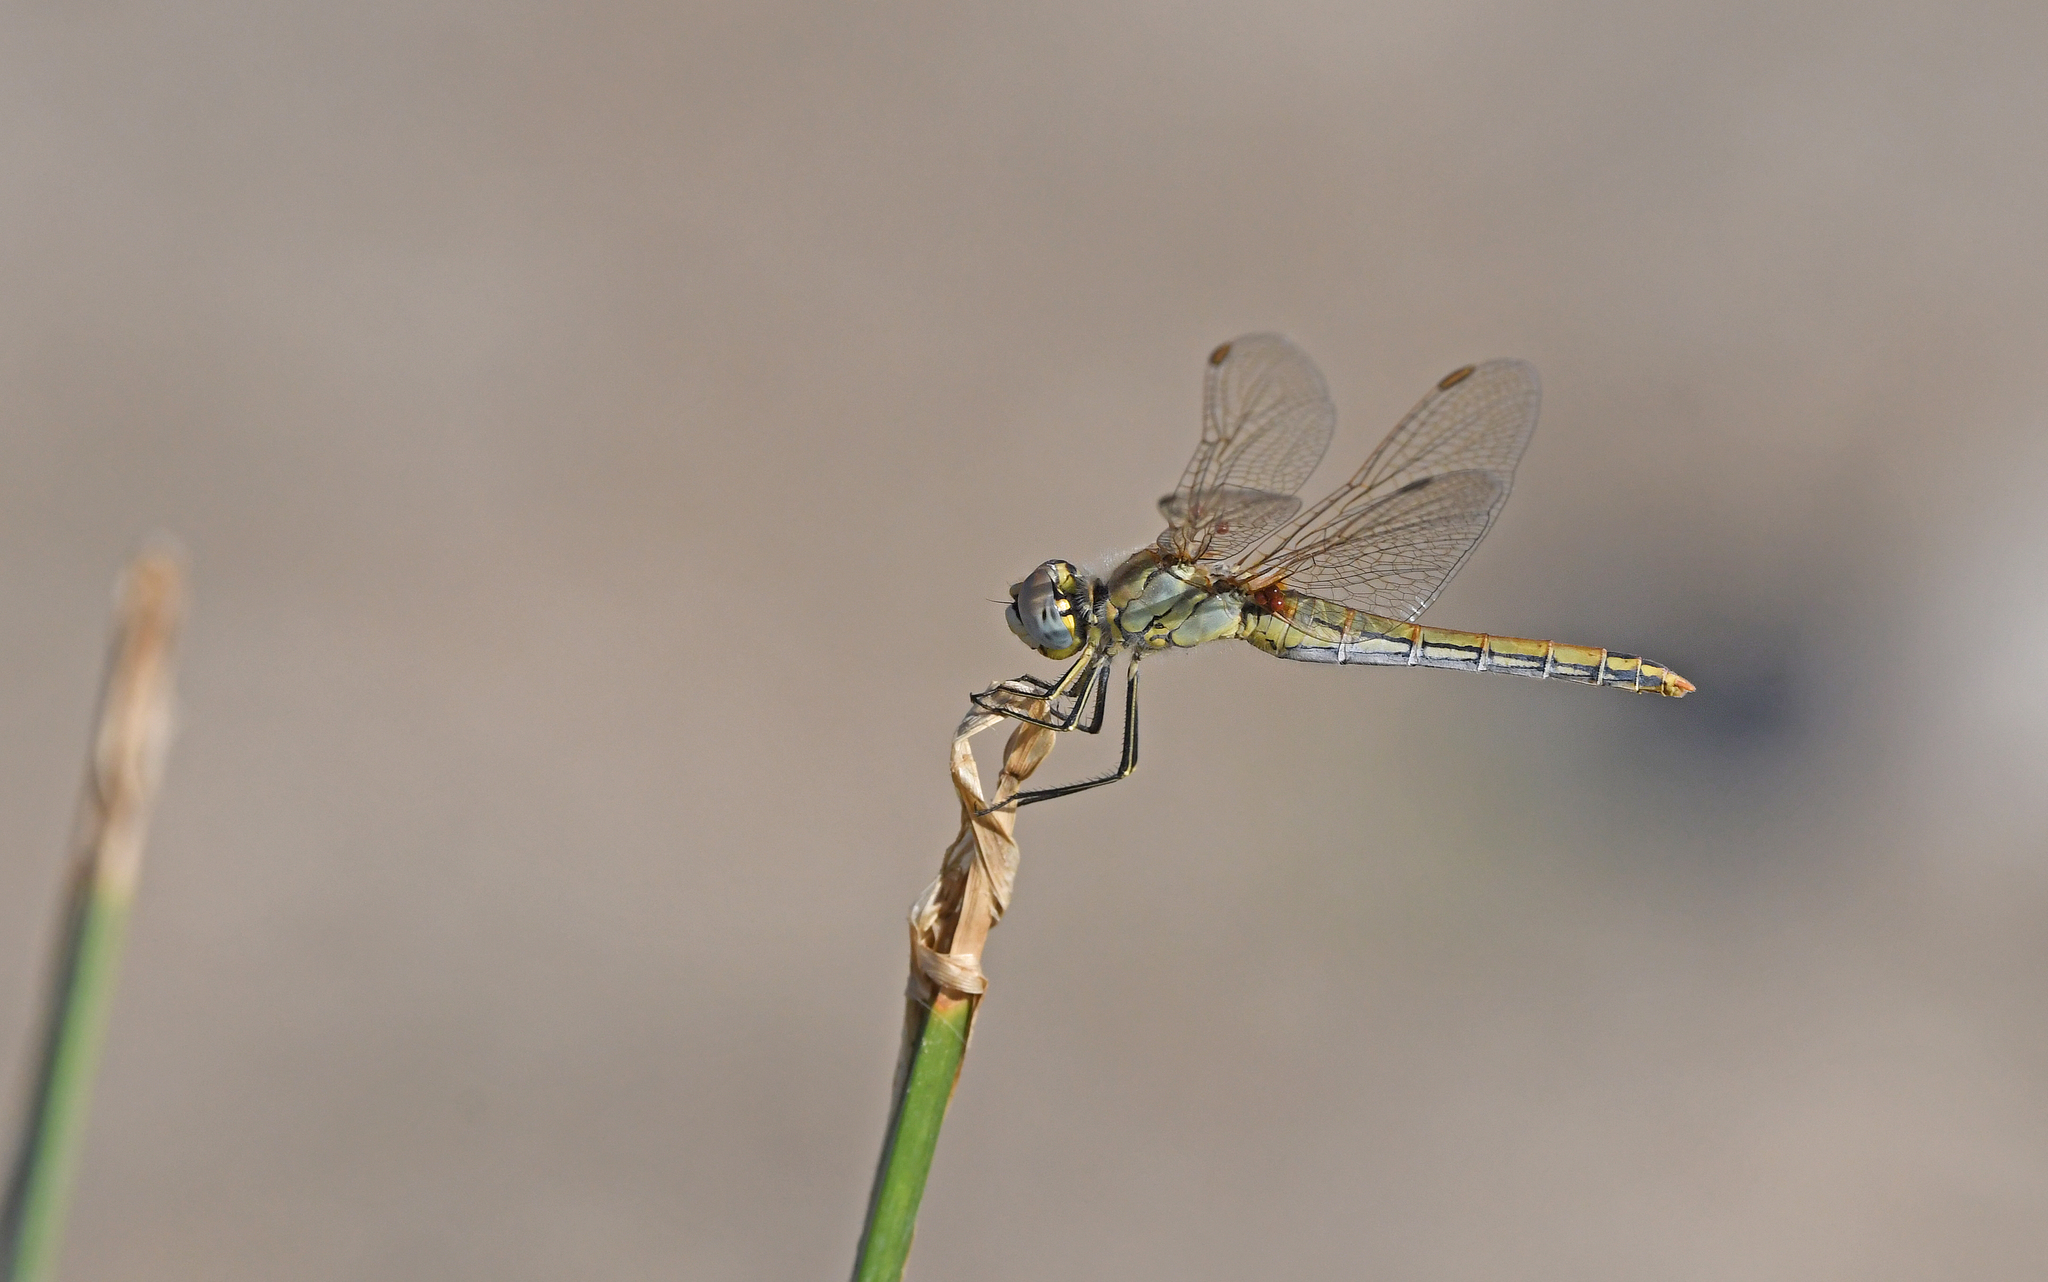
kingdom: Animalia
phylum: Arthropoda
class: Insecta
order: Odonata
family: Libellulidae
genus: Sympetrum
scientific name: Sympetrum fonscolombii
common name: Red-veined darter
